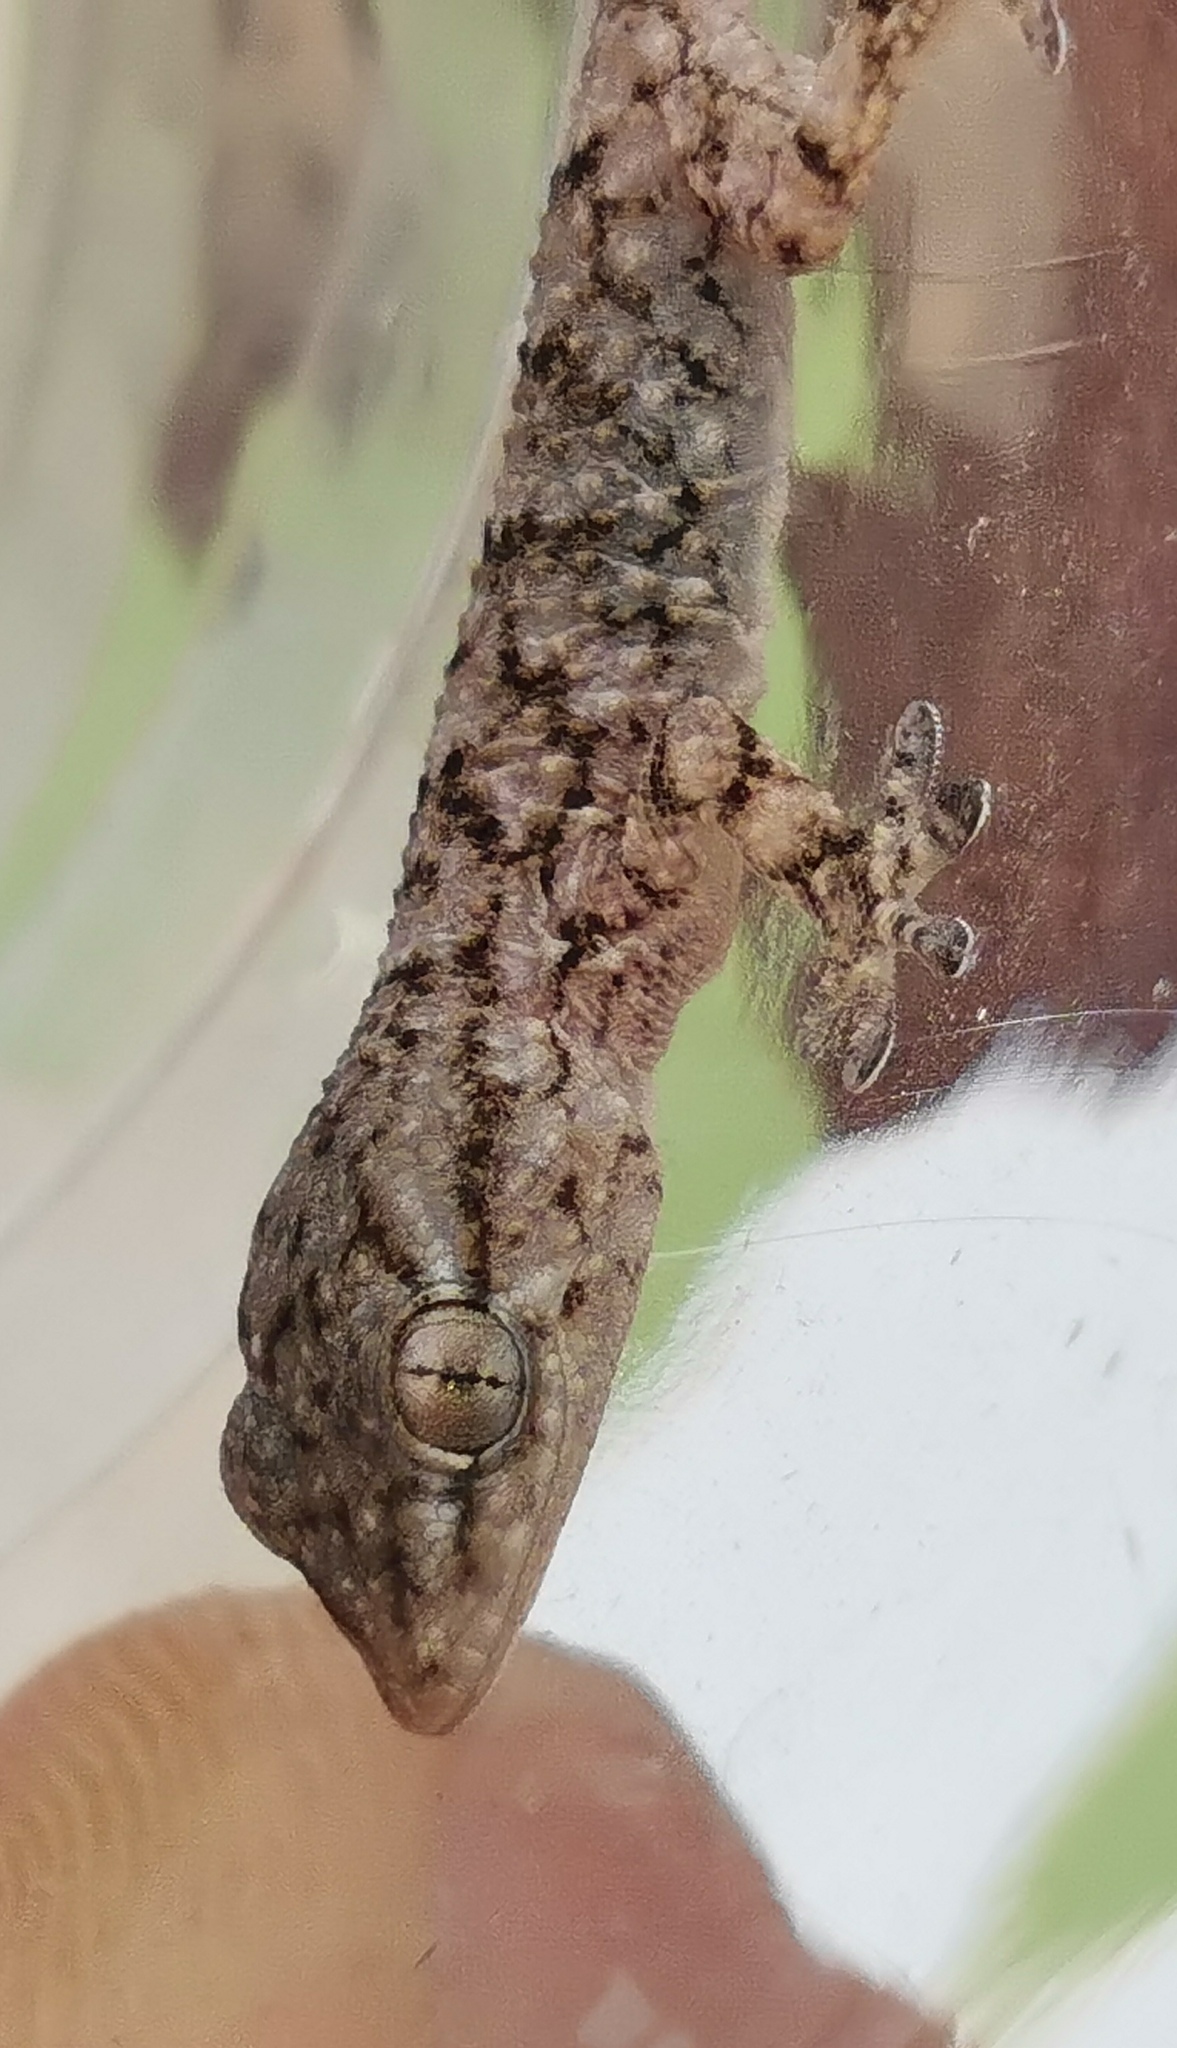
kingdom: Animalia
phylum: Chordata
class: Squamata
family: Phyllodactylidae
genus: Tarentola
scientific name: Tarentola mauritanica
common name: Moorish gecko
